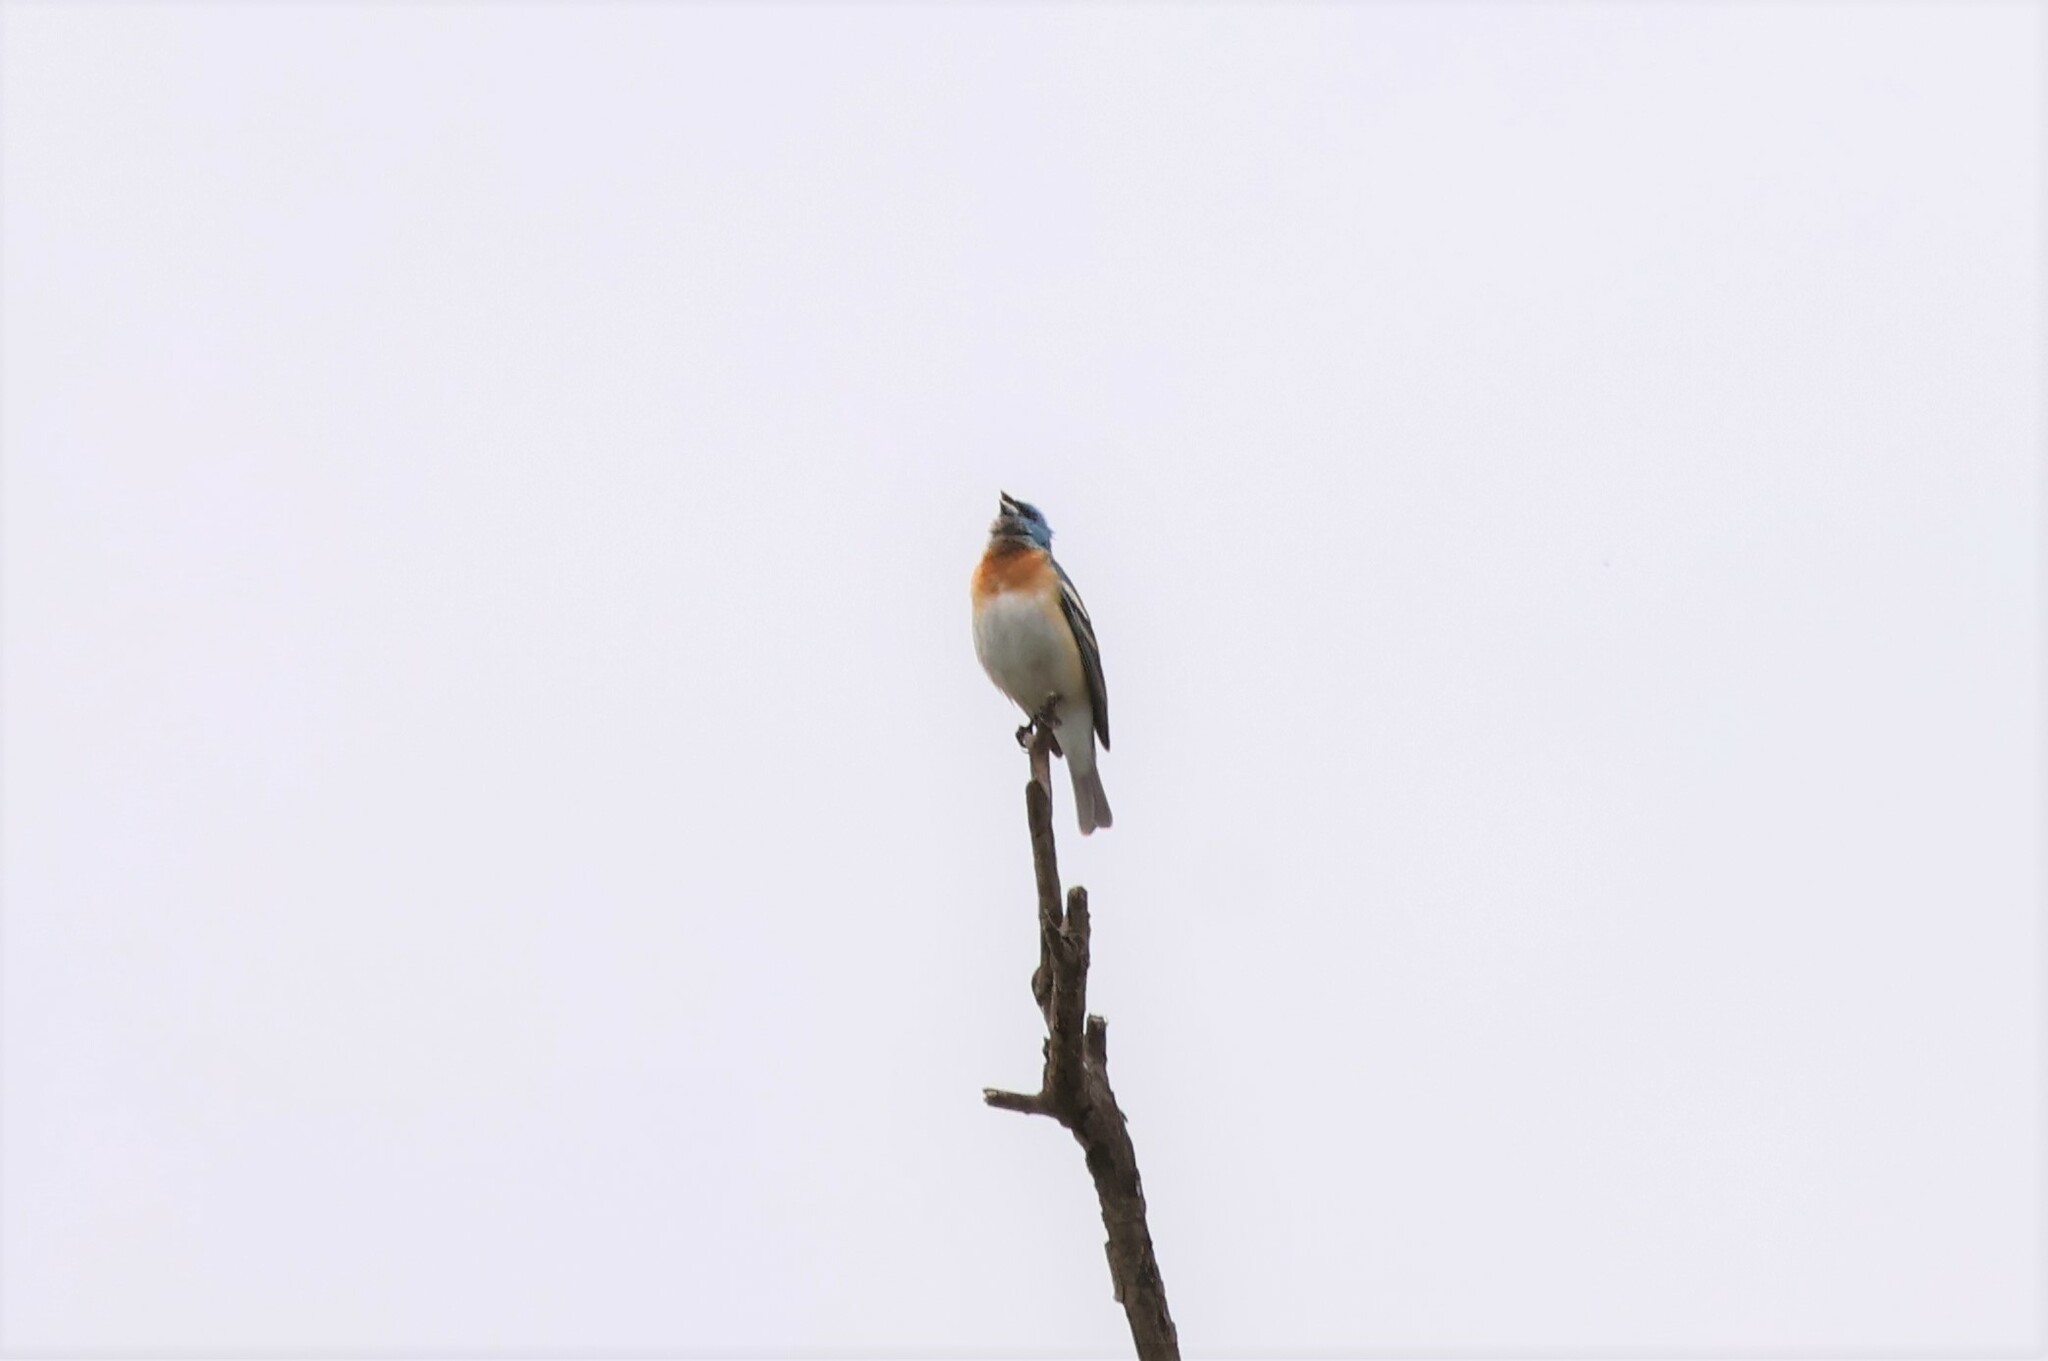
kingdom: Animalia
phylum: Chordata
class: Aves
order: Passeriformes
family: Cardinalidae
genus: Passerina
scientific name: Passerina amoena
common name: Lazuli bunting
